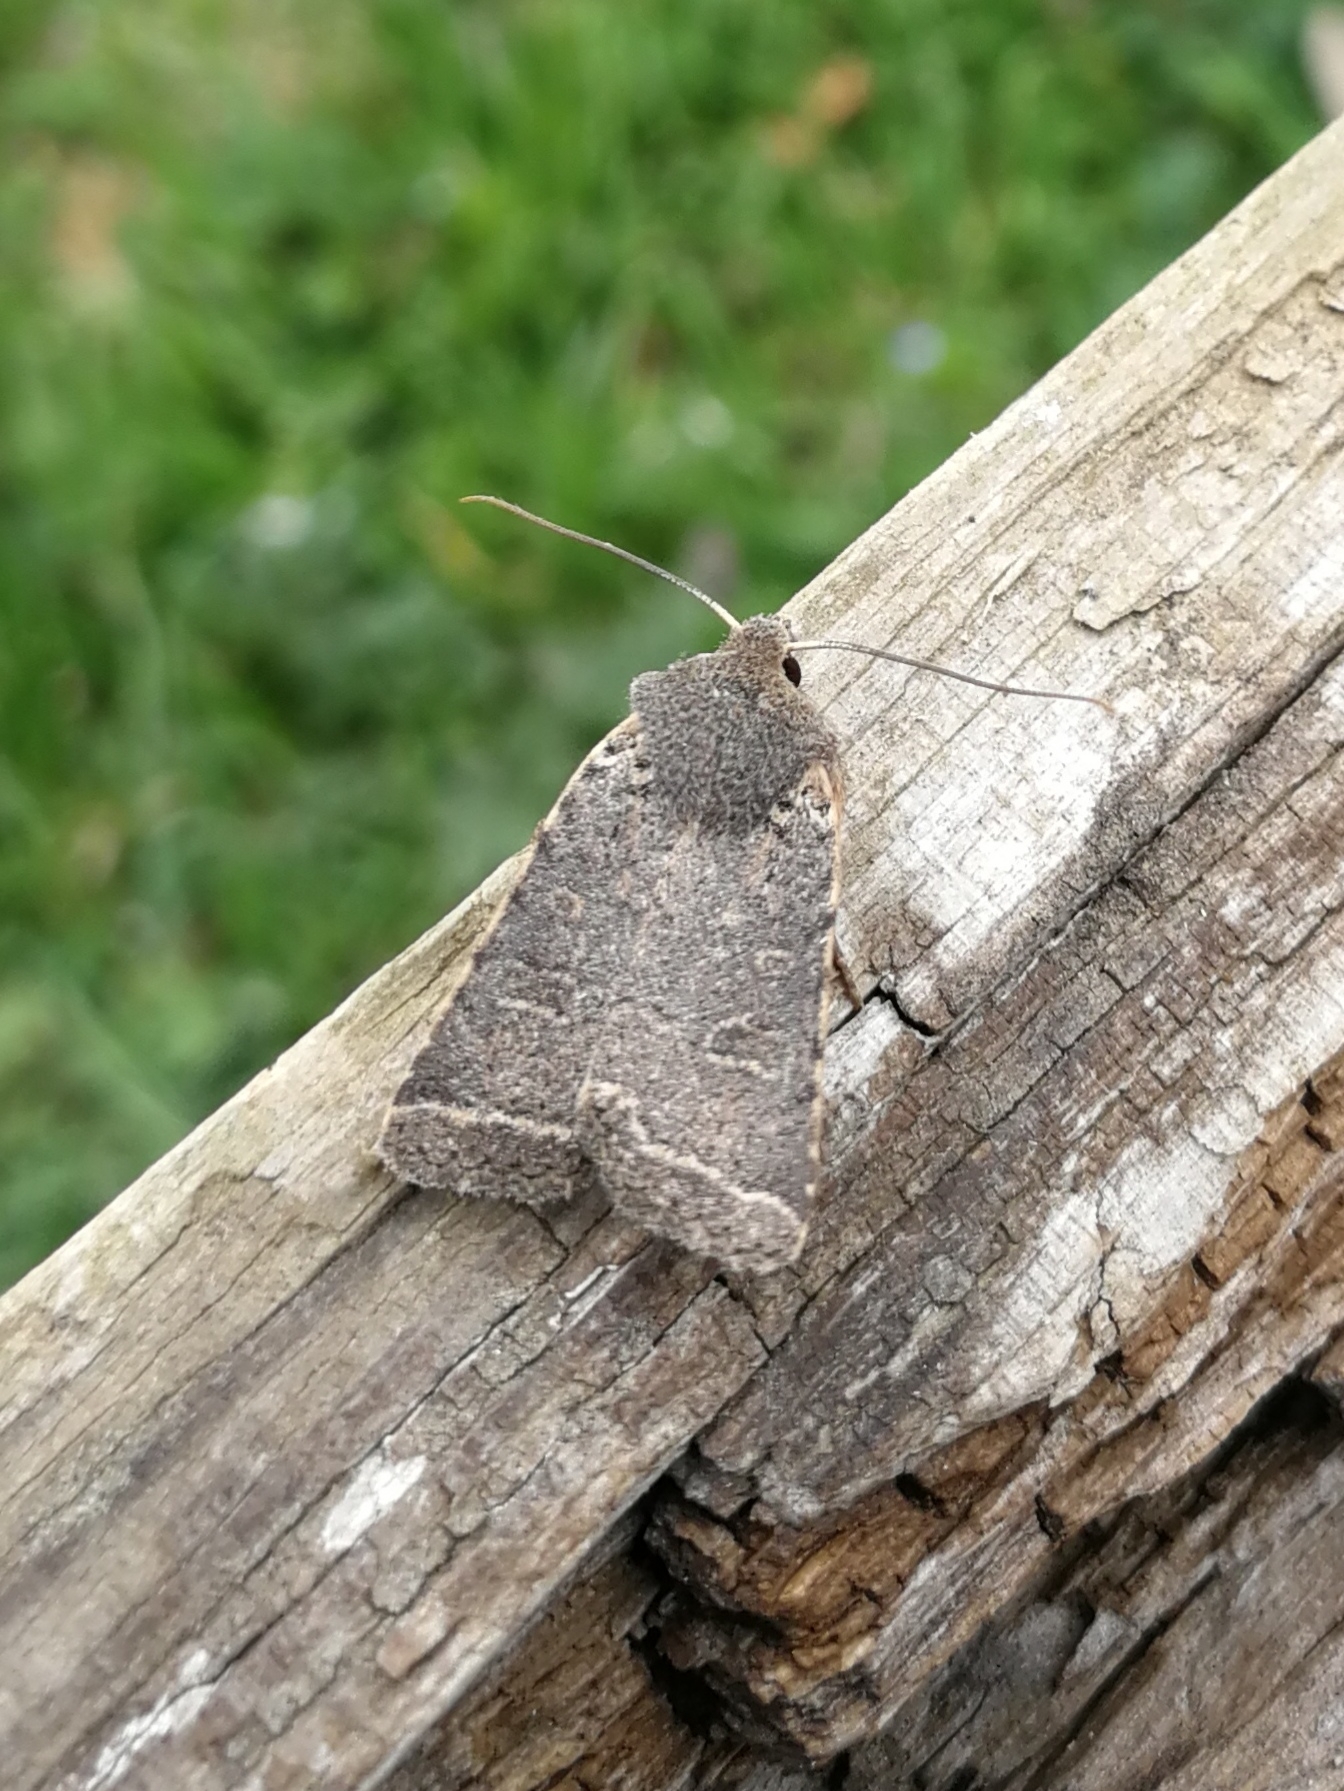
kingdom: Animalia
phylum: Arthropoda
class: Insecta
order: Lepidoptera
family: Noctuidae
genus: Agrochola
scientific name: Agrochola ruticilla
